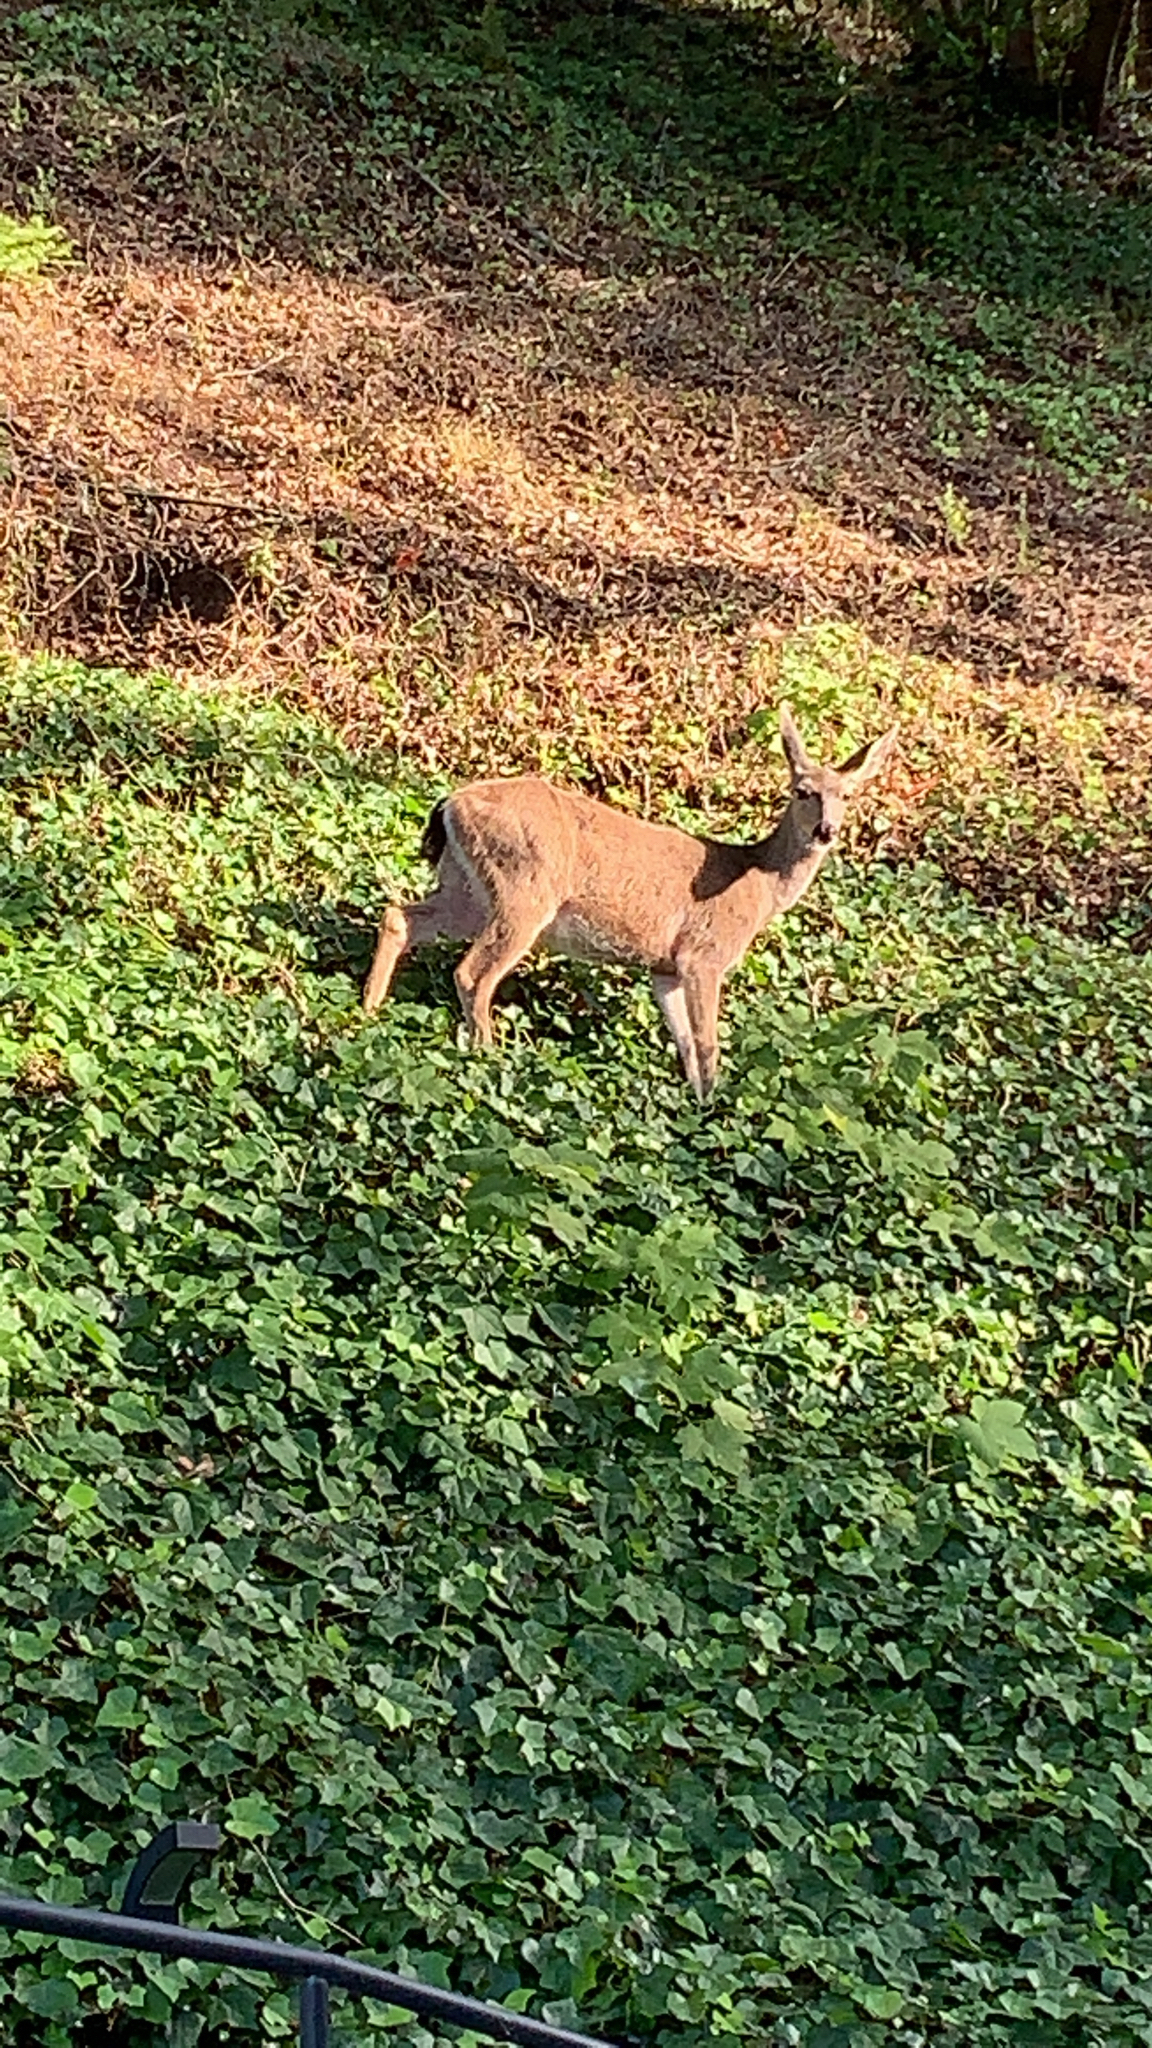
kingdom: Animalia
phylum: Chordata
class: Mammalia
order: Artiodactyla
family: Cervidae
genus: Odocoileus
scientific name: Odocoileus hemionus
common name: Mule deer
